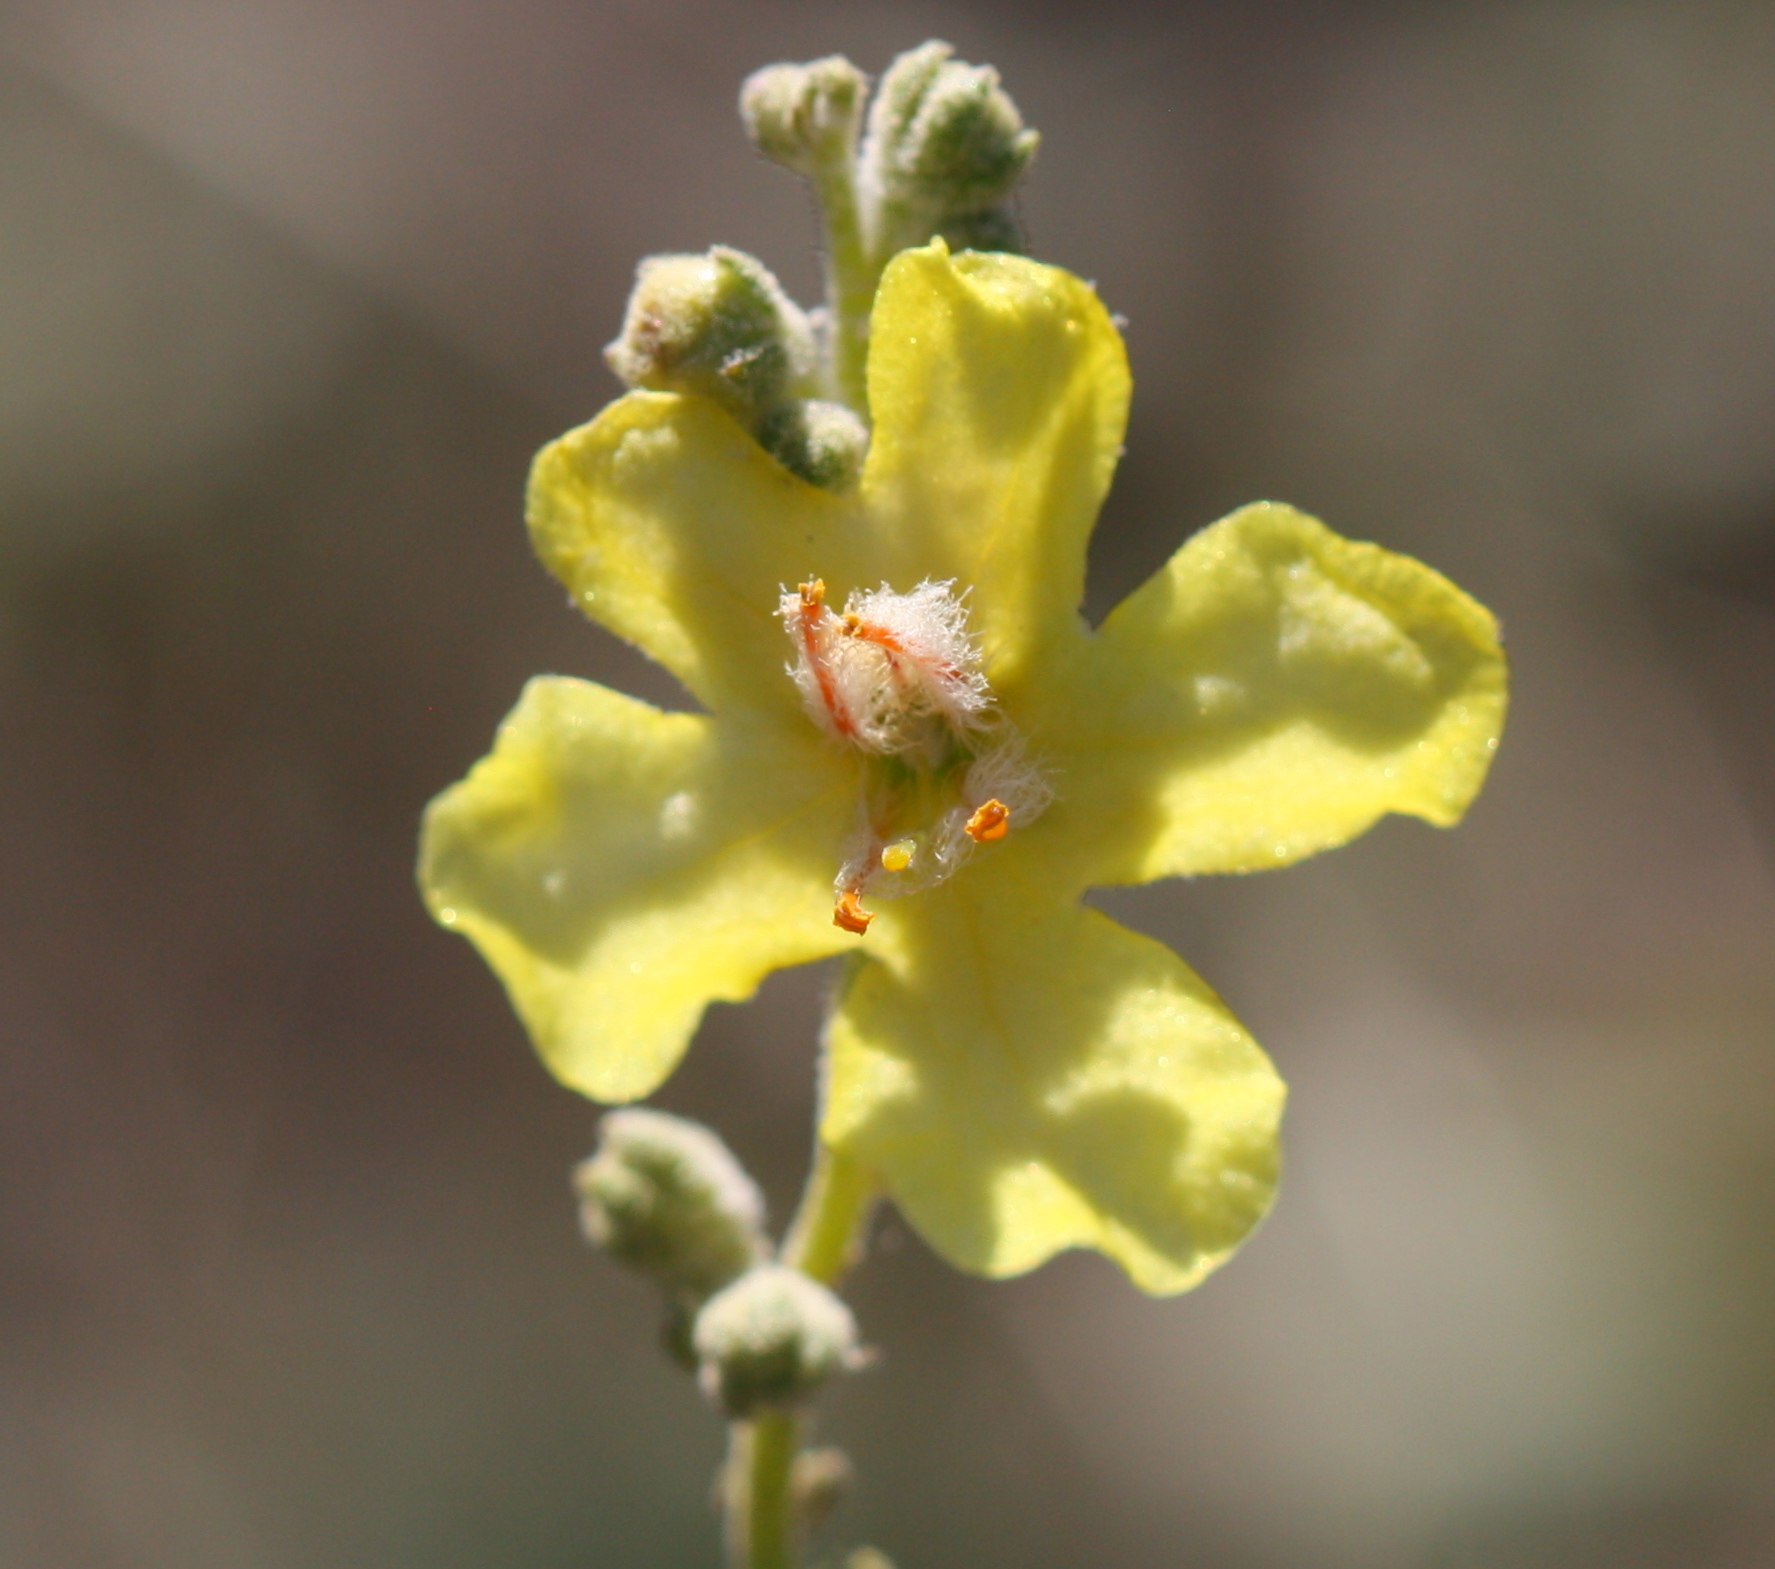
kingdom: Plantae
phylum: Tracheophyta
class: Magnoliopsida
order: Lamiales
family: Scrophulariaceae
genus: Verbascum
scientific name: Verbascum pulverulentum
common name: Broad-leaf mullein
